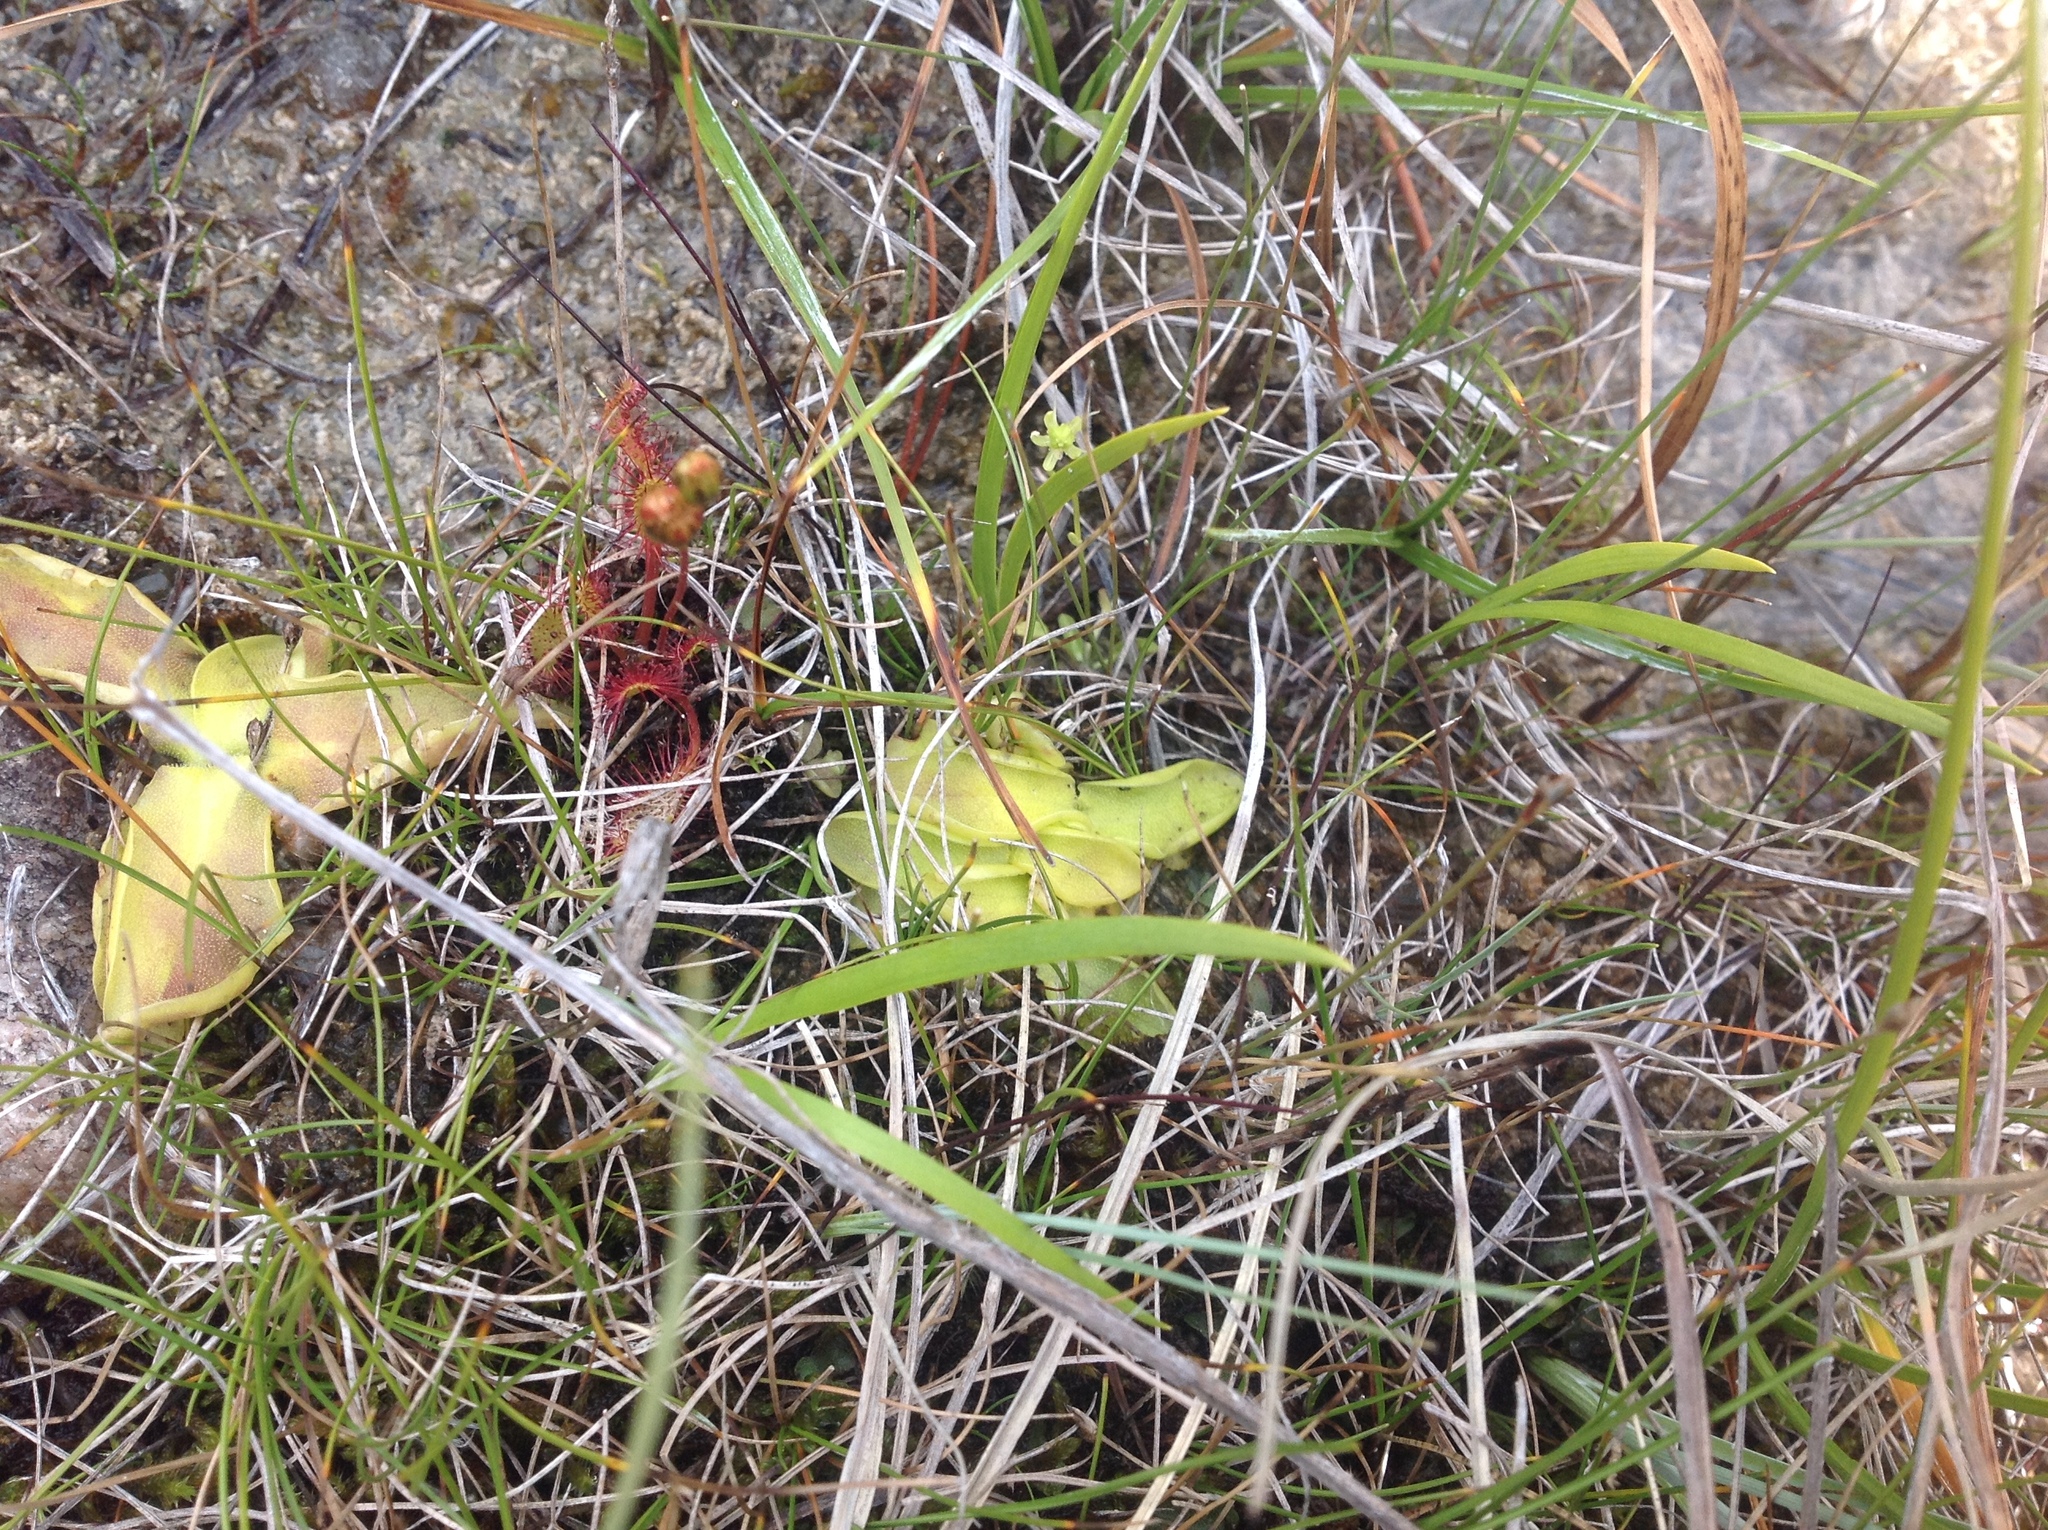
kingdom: Plantae
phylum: Tracheophyta
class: Magnoliopsida
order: Lamiales
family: Lentibulariaceae
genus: Pinguicula
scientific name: Pinguicula vulgaris
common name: Common butterwort
